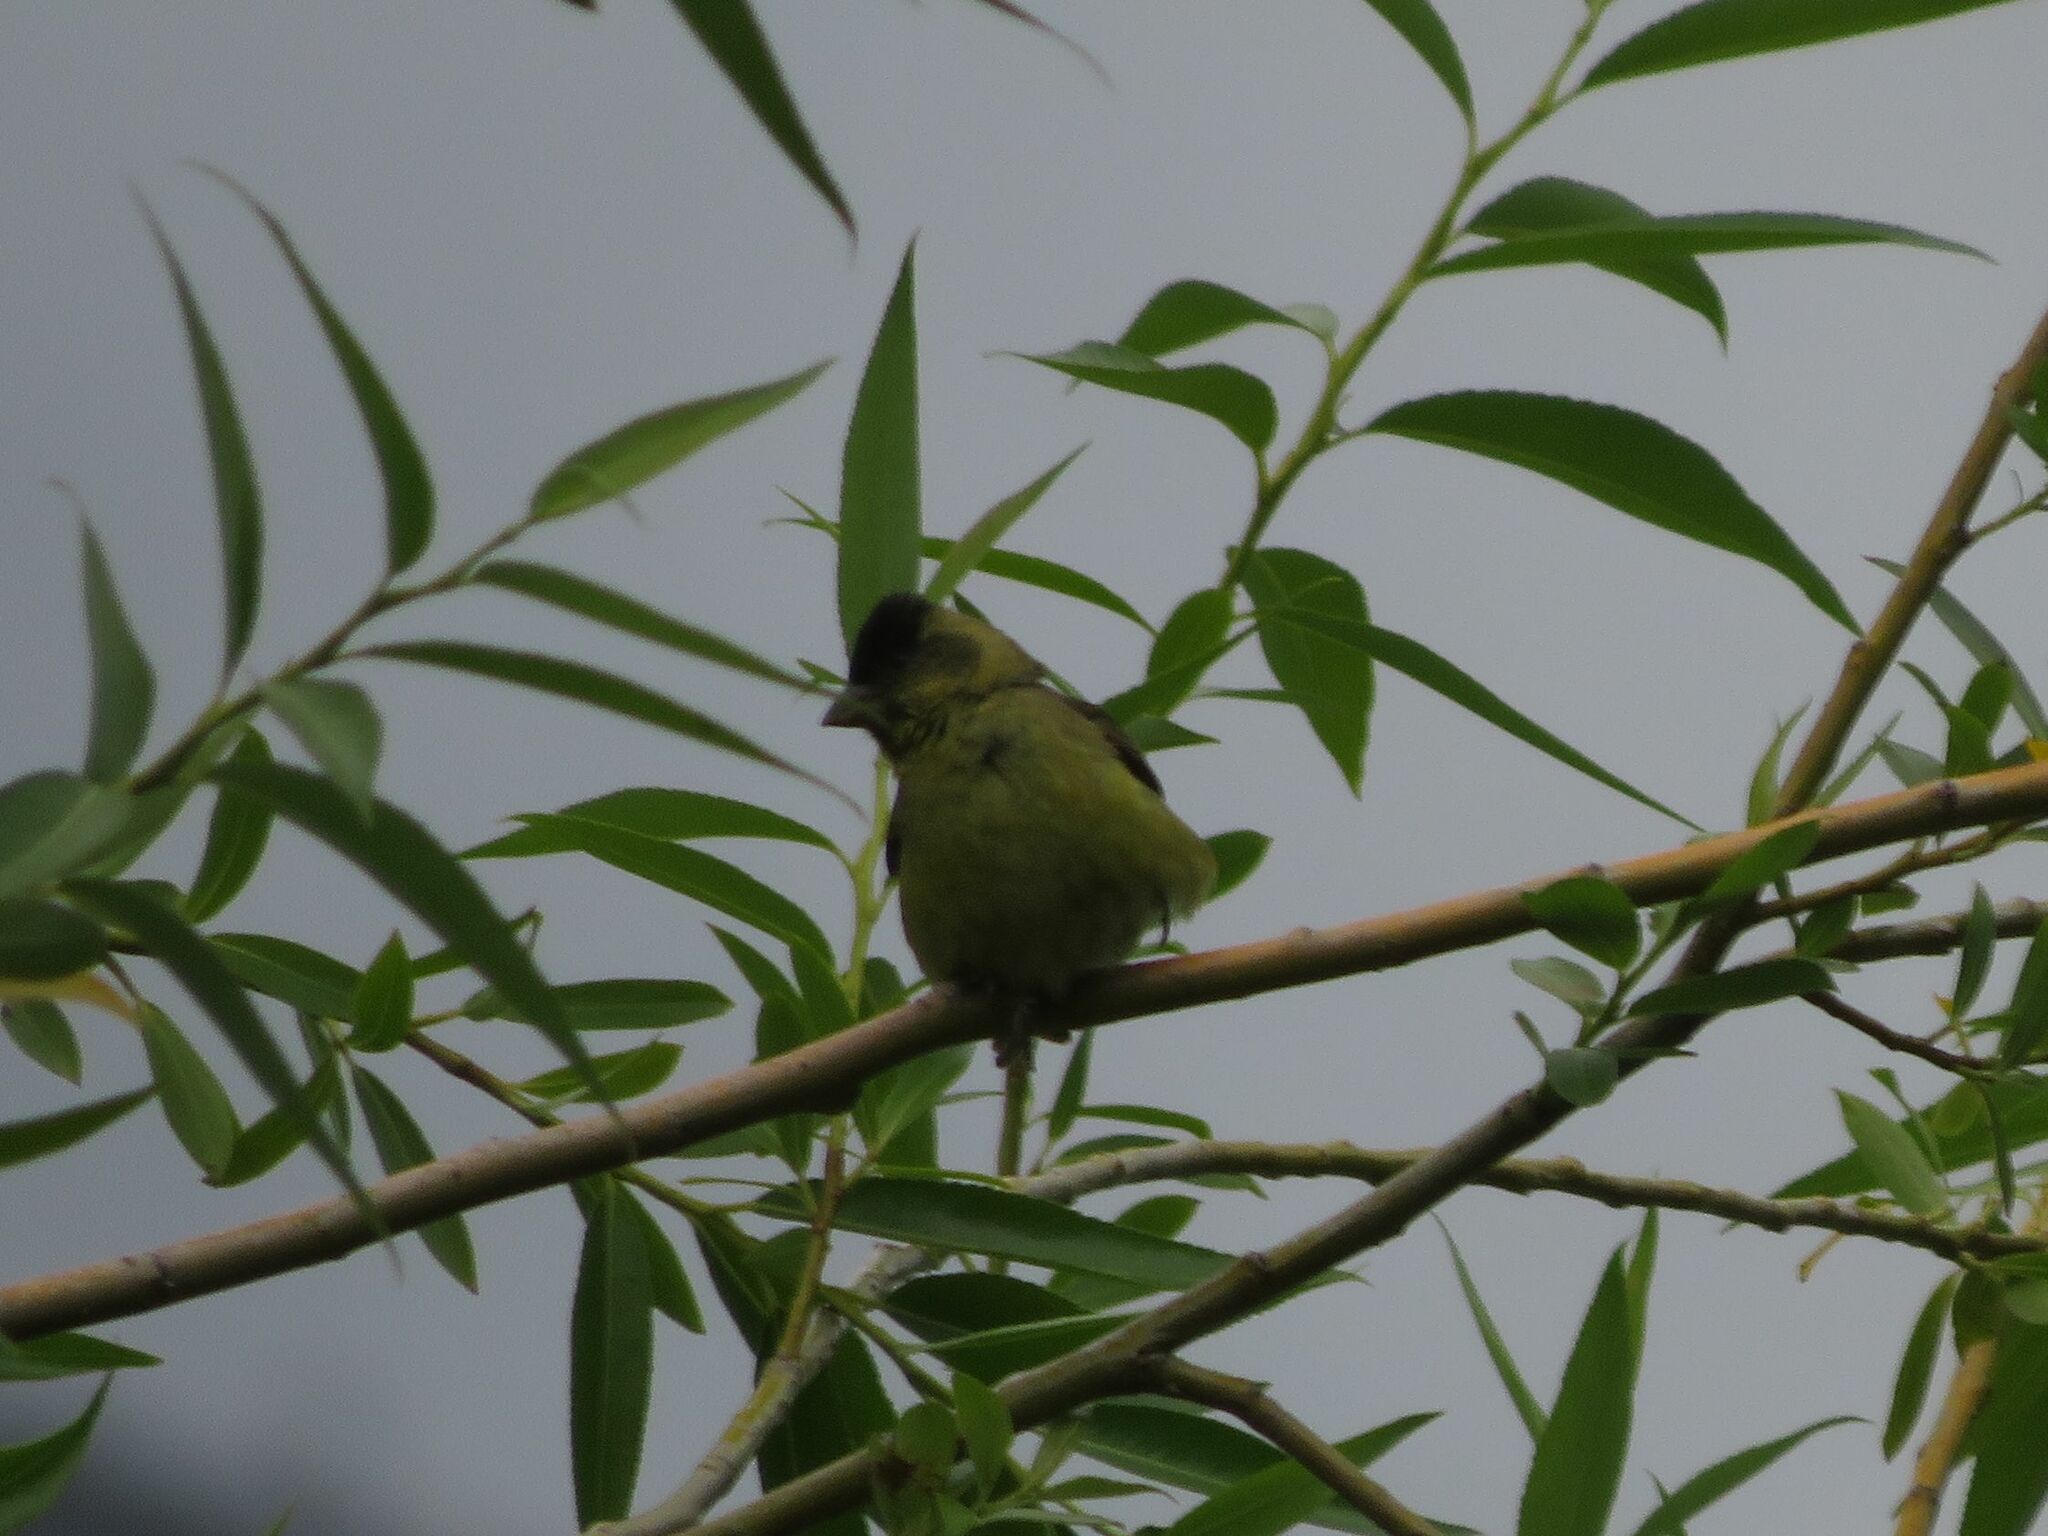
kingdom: Animalia
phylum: Chordata
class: Aves
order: Passeriformes
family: Fringillidae
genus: Spinus
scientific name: Spinus barbatus
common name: Black-chinned siskin
